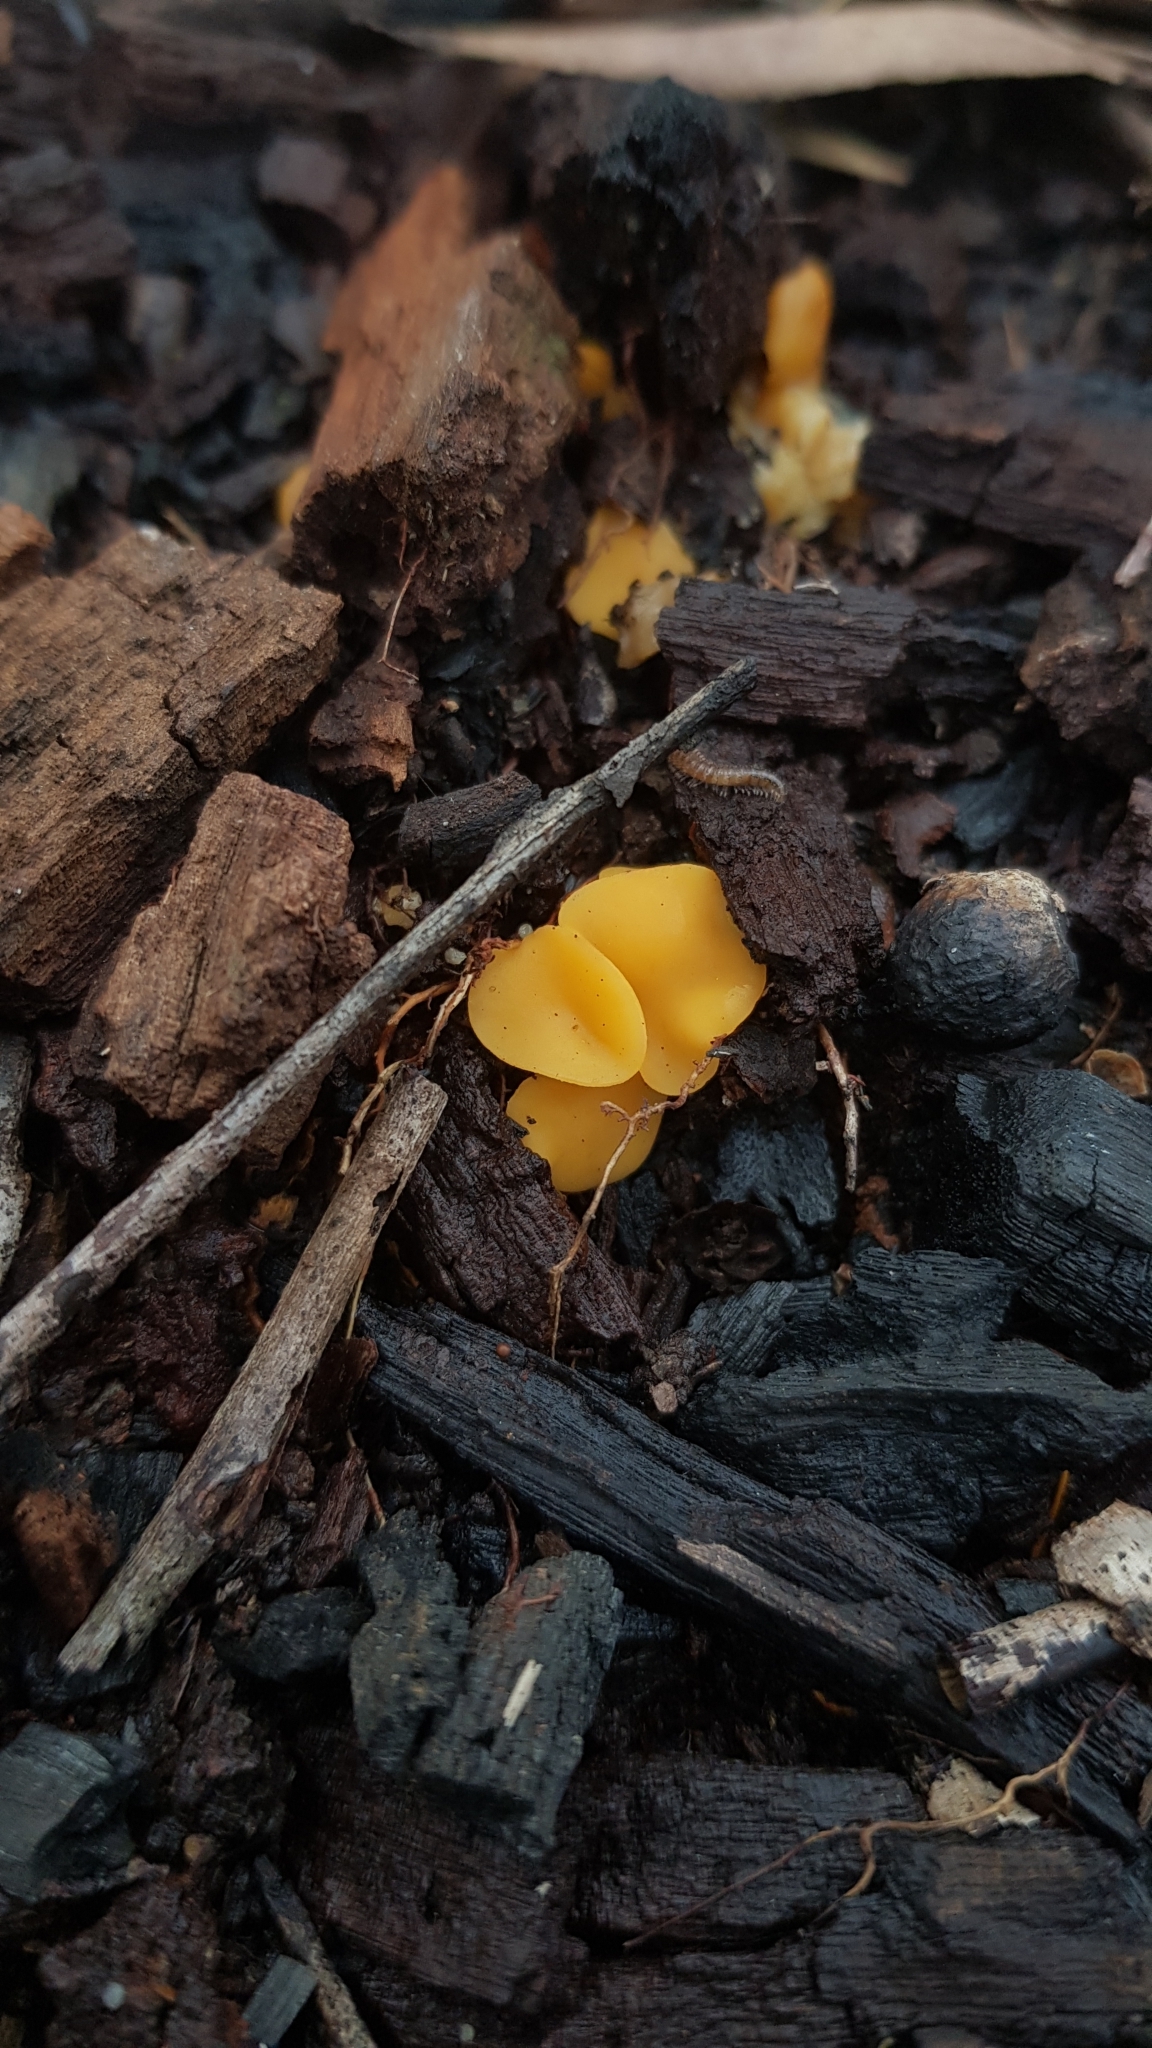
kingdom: Fungi
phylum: Ascomycota
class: Leotiomycetes
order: Helotiales
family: Helotiaceae
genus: Phaeohelotium
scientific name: Phaeohelotium baileyanum
